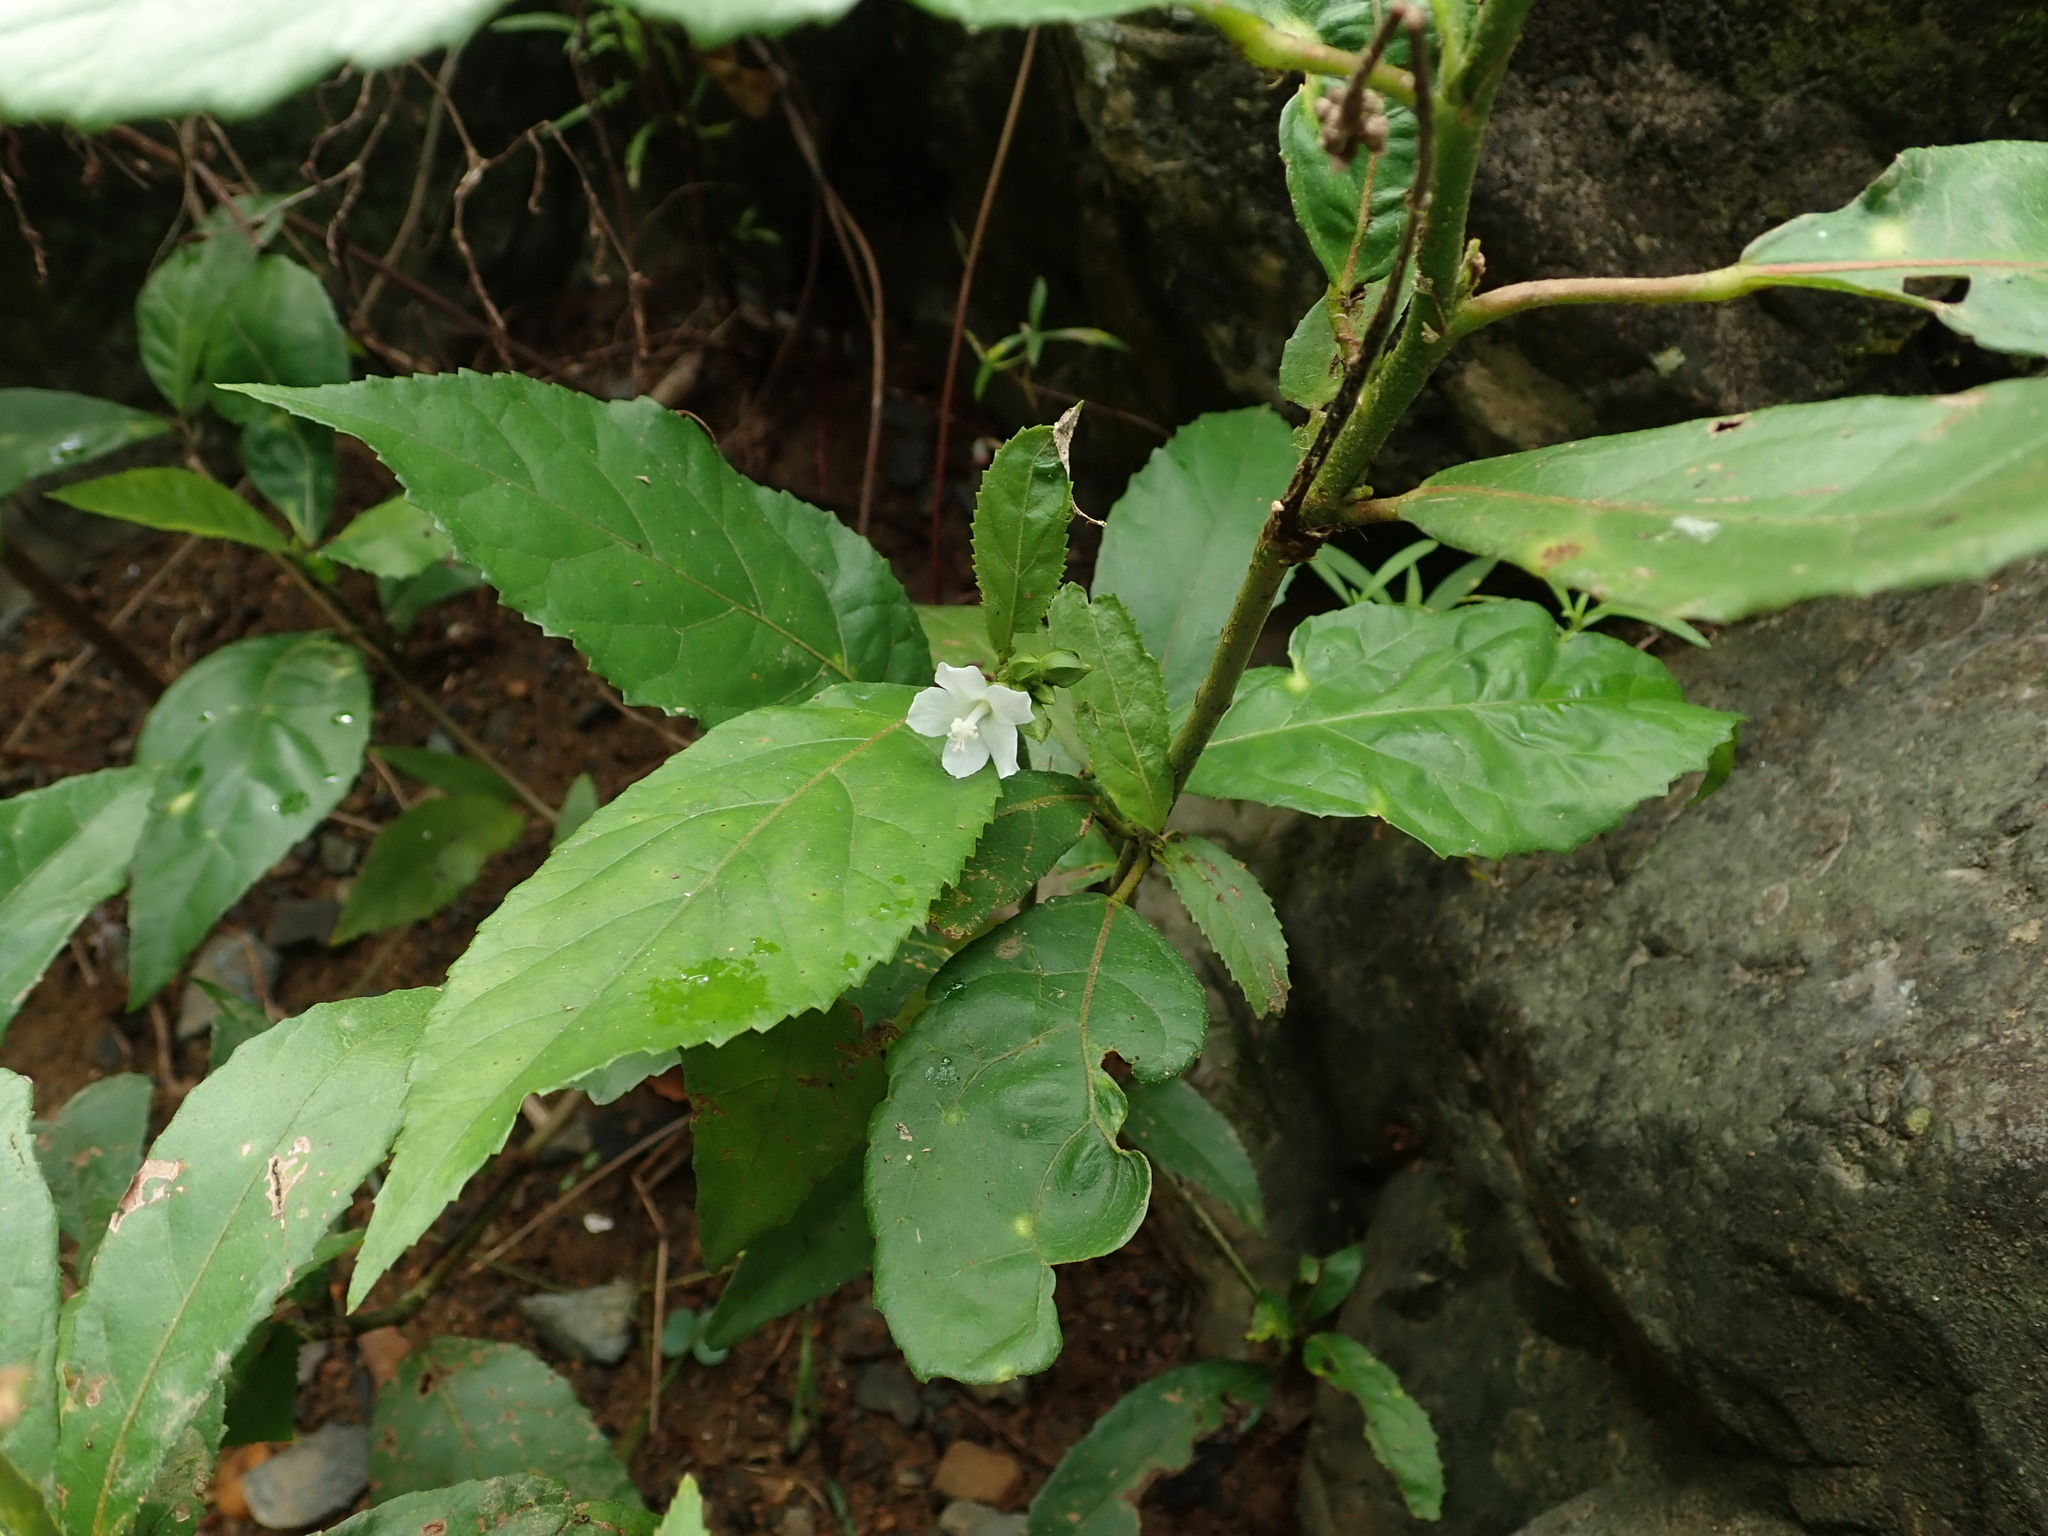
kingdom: Plantae
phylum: Tracheophyta
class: Magnoliopsida
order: Malvales
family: Malvaceae
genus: Pavonia
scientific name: Pavonia fruticosa
